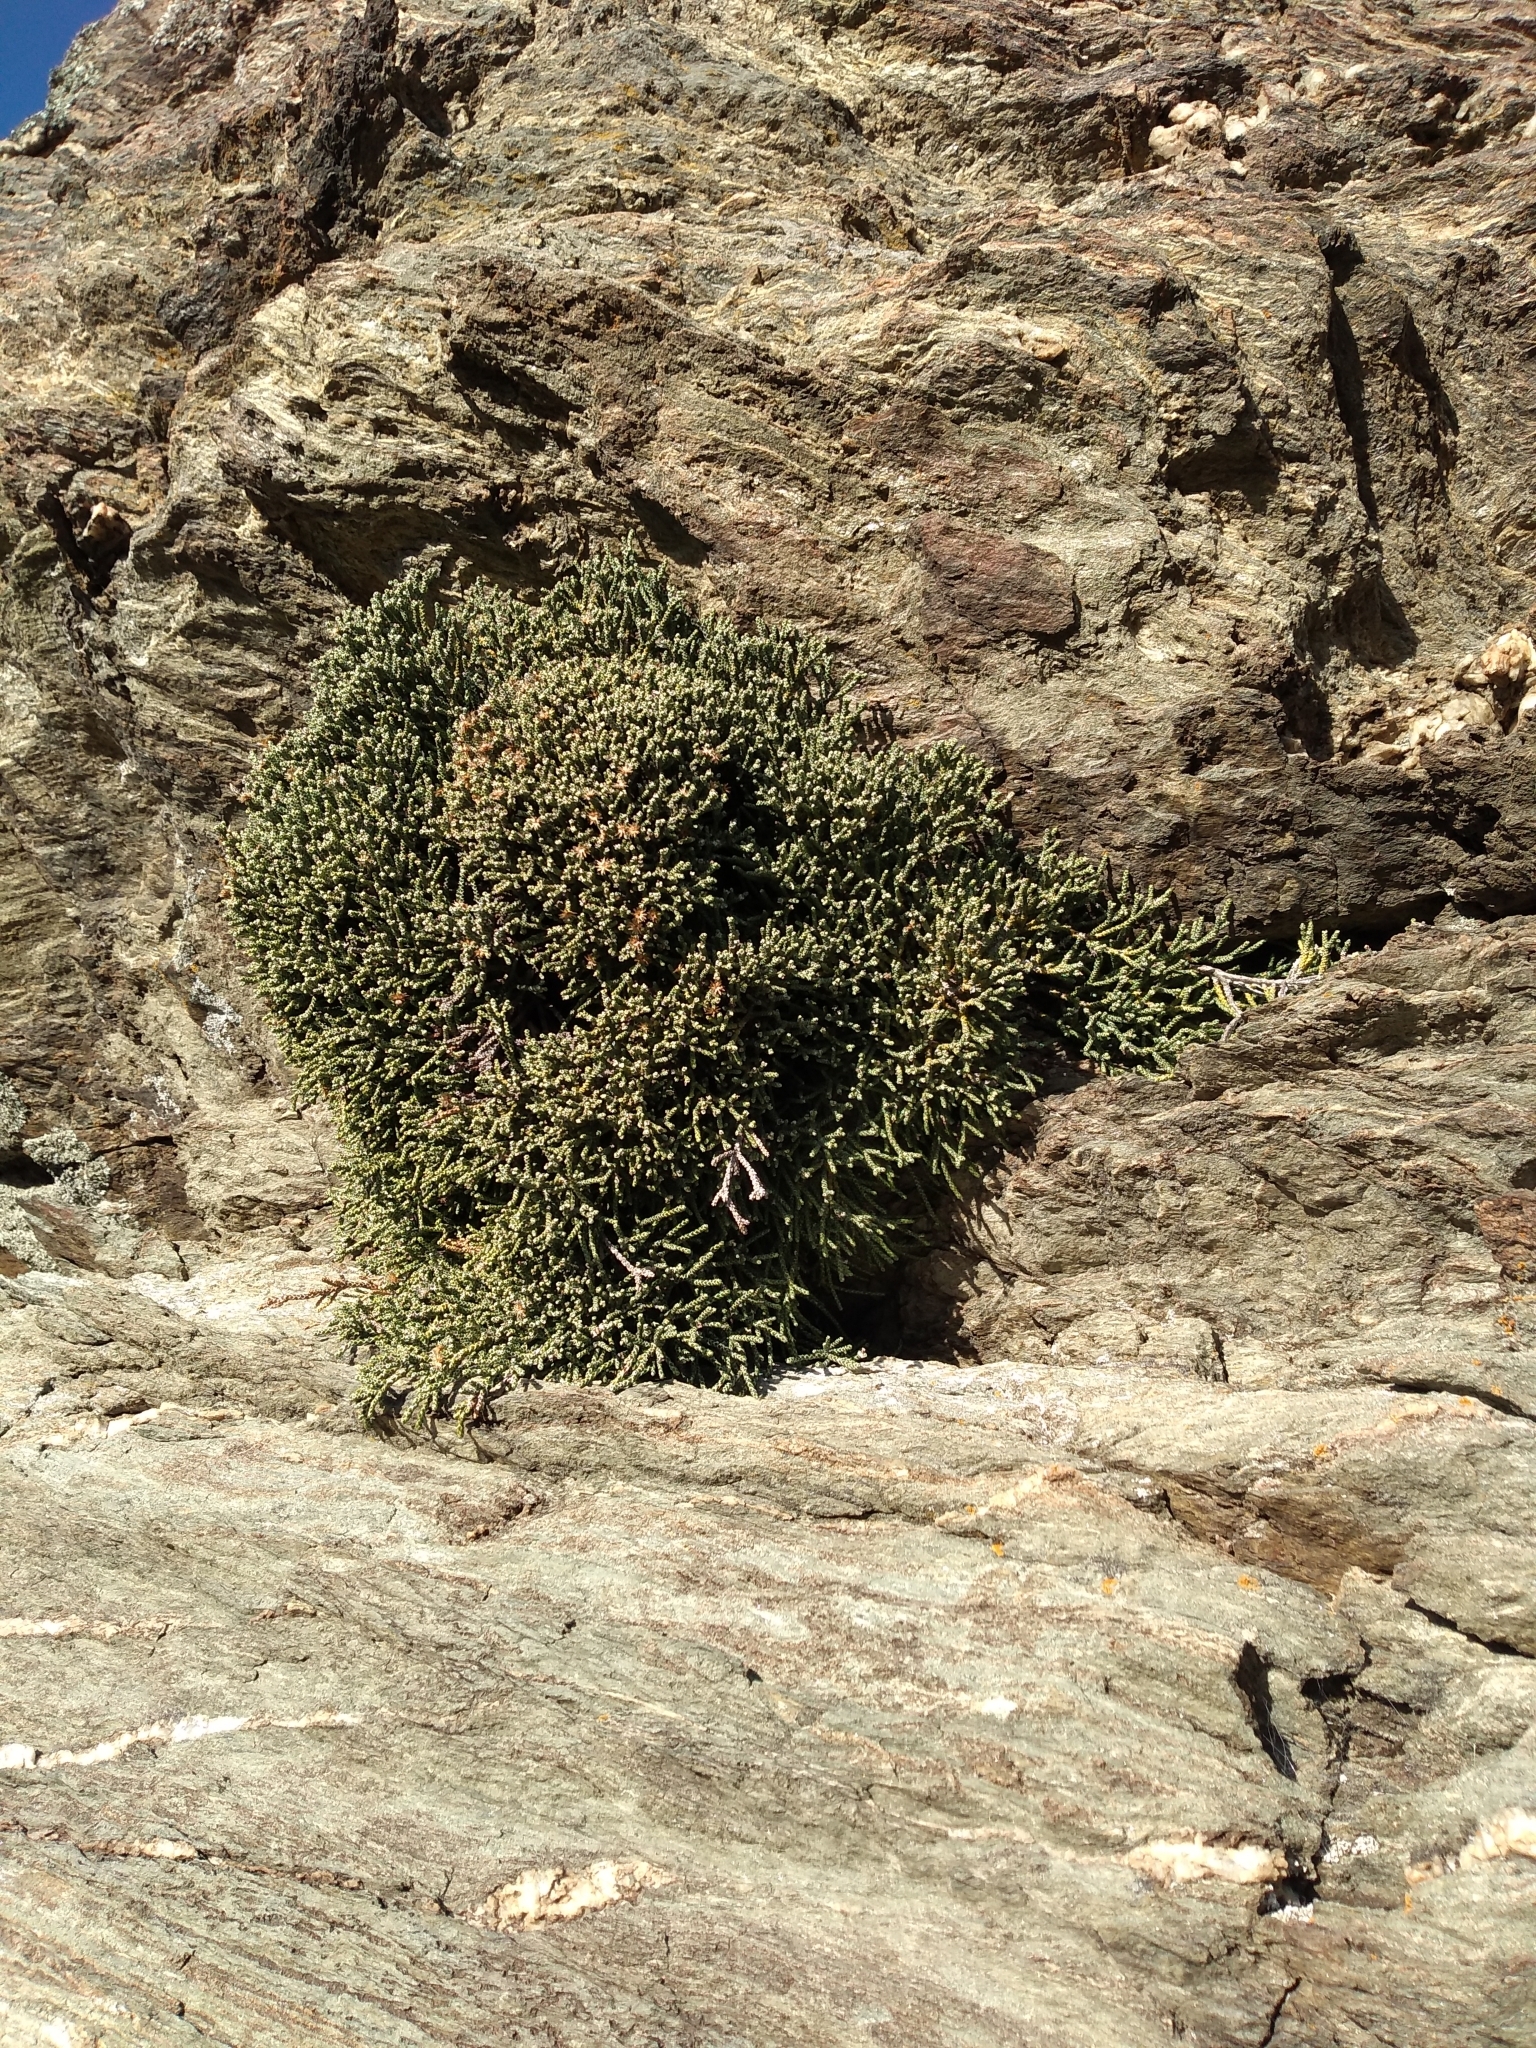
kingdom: Plantae
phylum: Tracheophyta
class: Magnoliopsida
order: Asterales
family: Asteraceae
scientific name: Asteraceae
